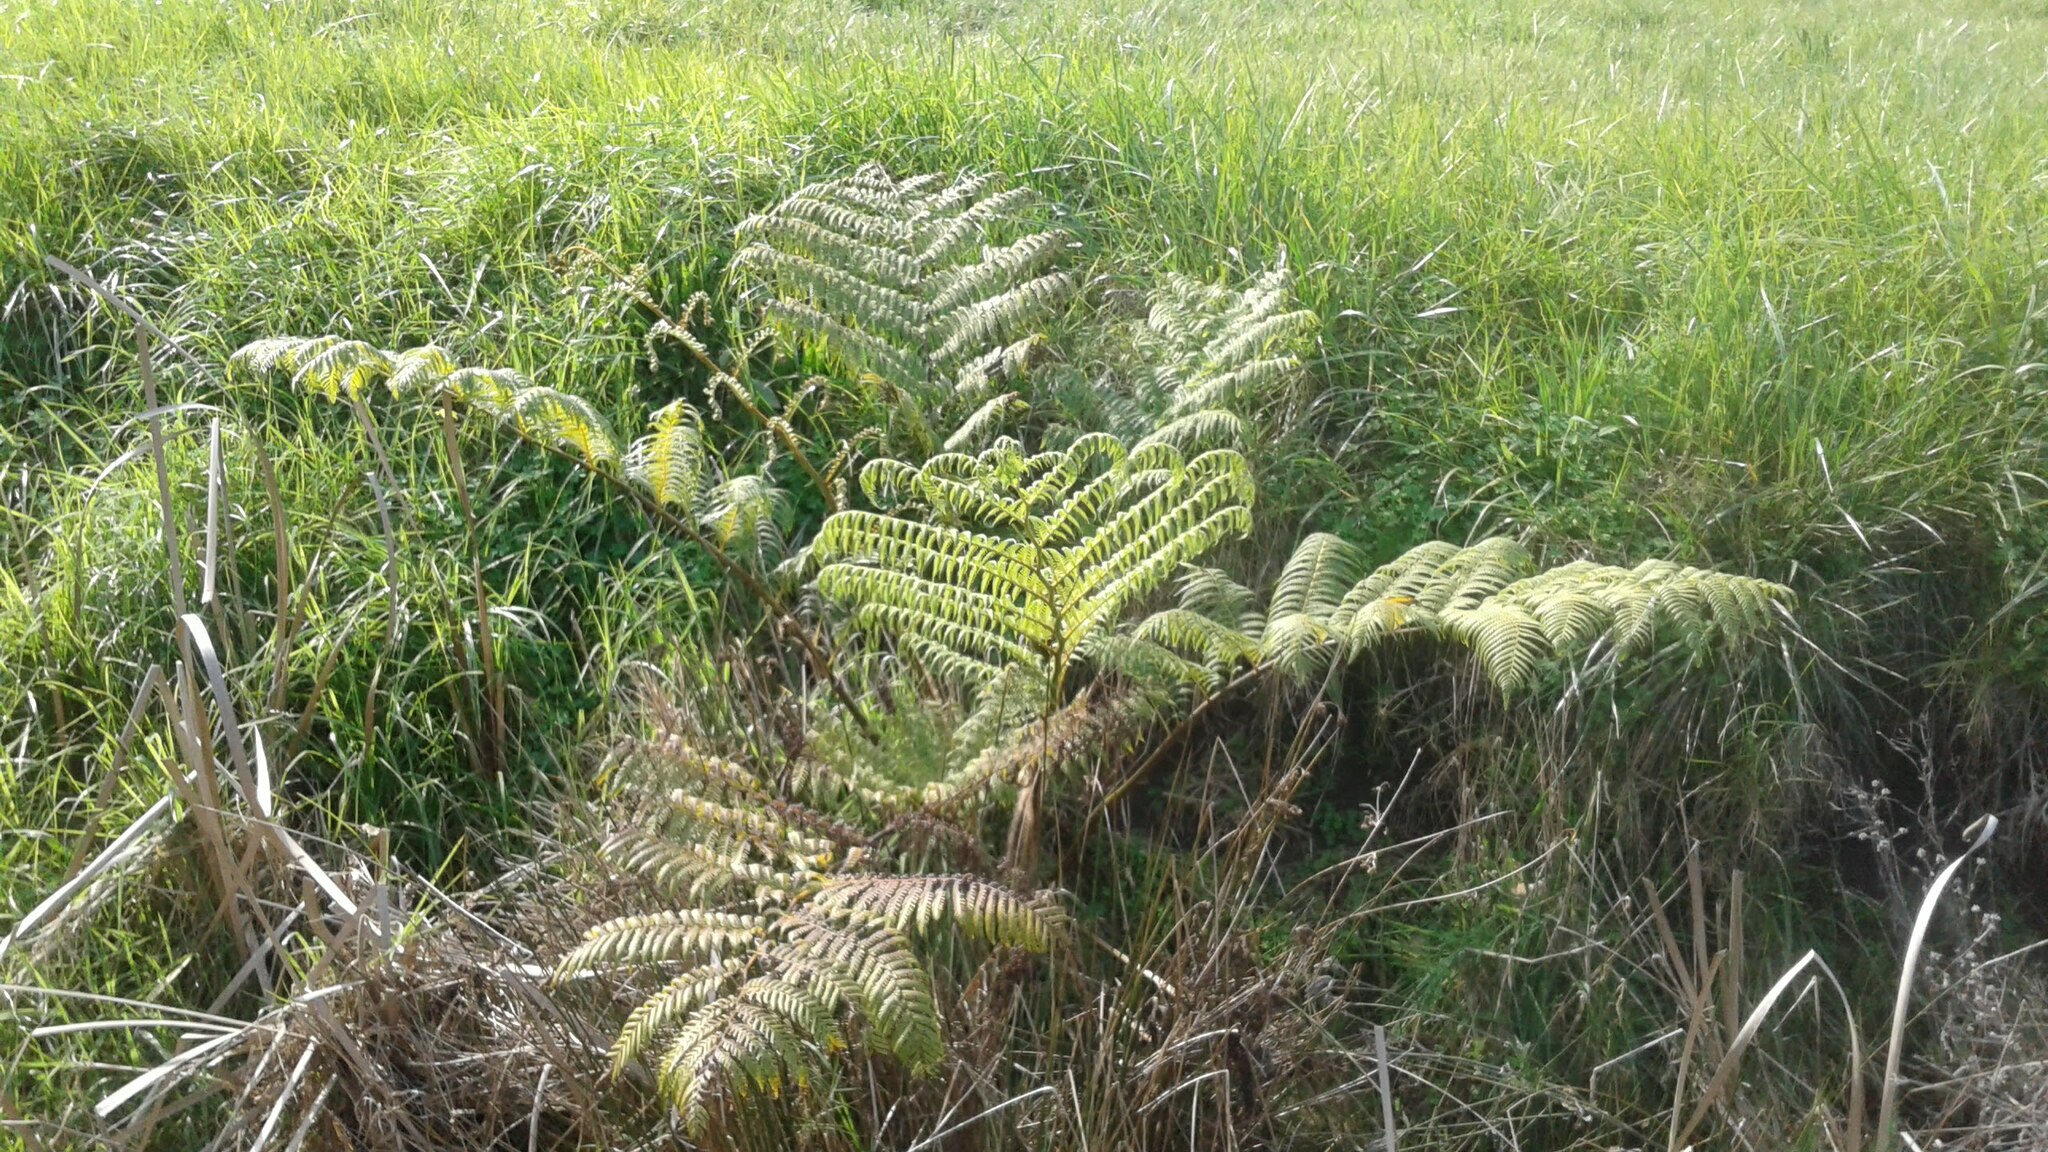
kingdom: Plantae
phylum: Tracheophyta
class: Polypodiopsida
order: Cyatheales
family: Cyatheaceae
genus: Sphaeropteris
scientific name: Sphaeropteris cooperi
